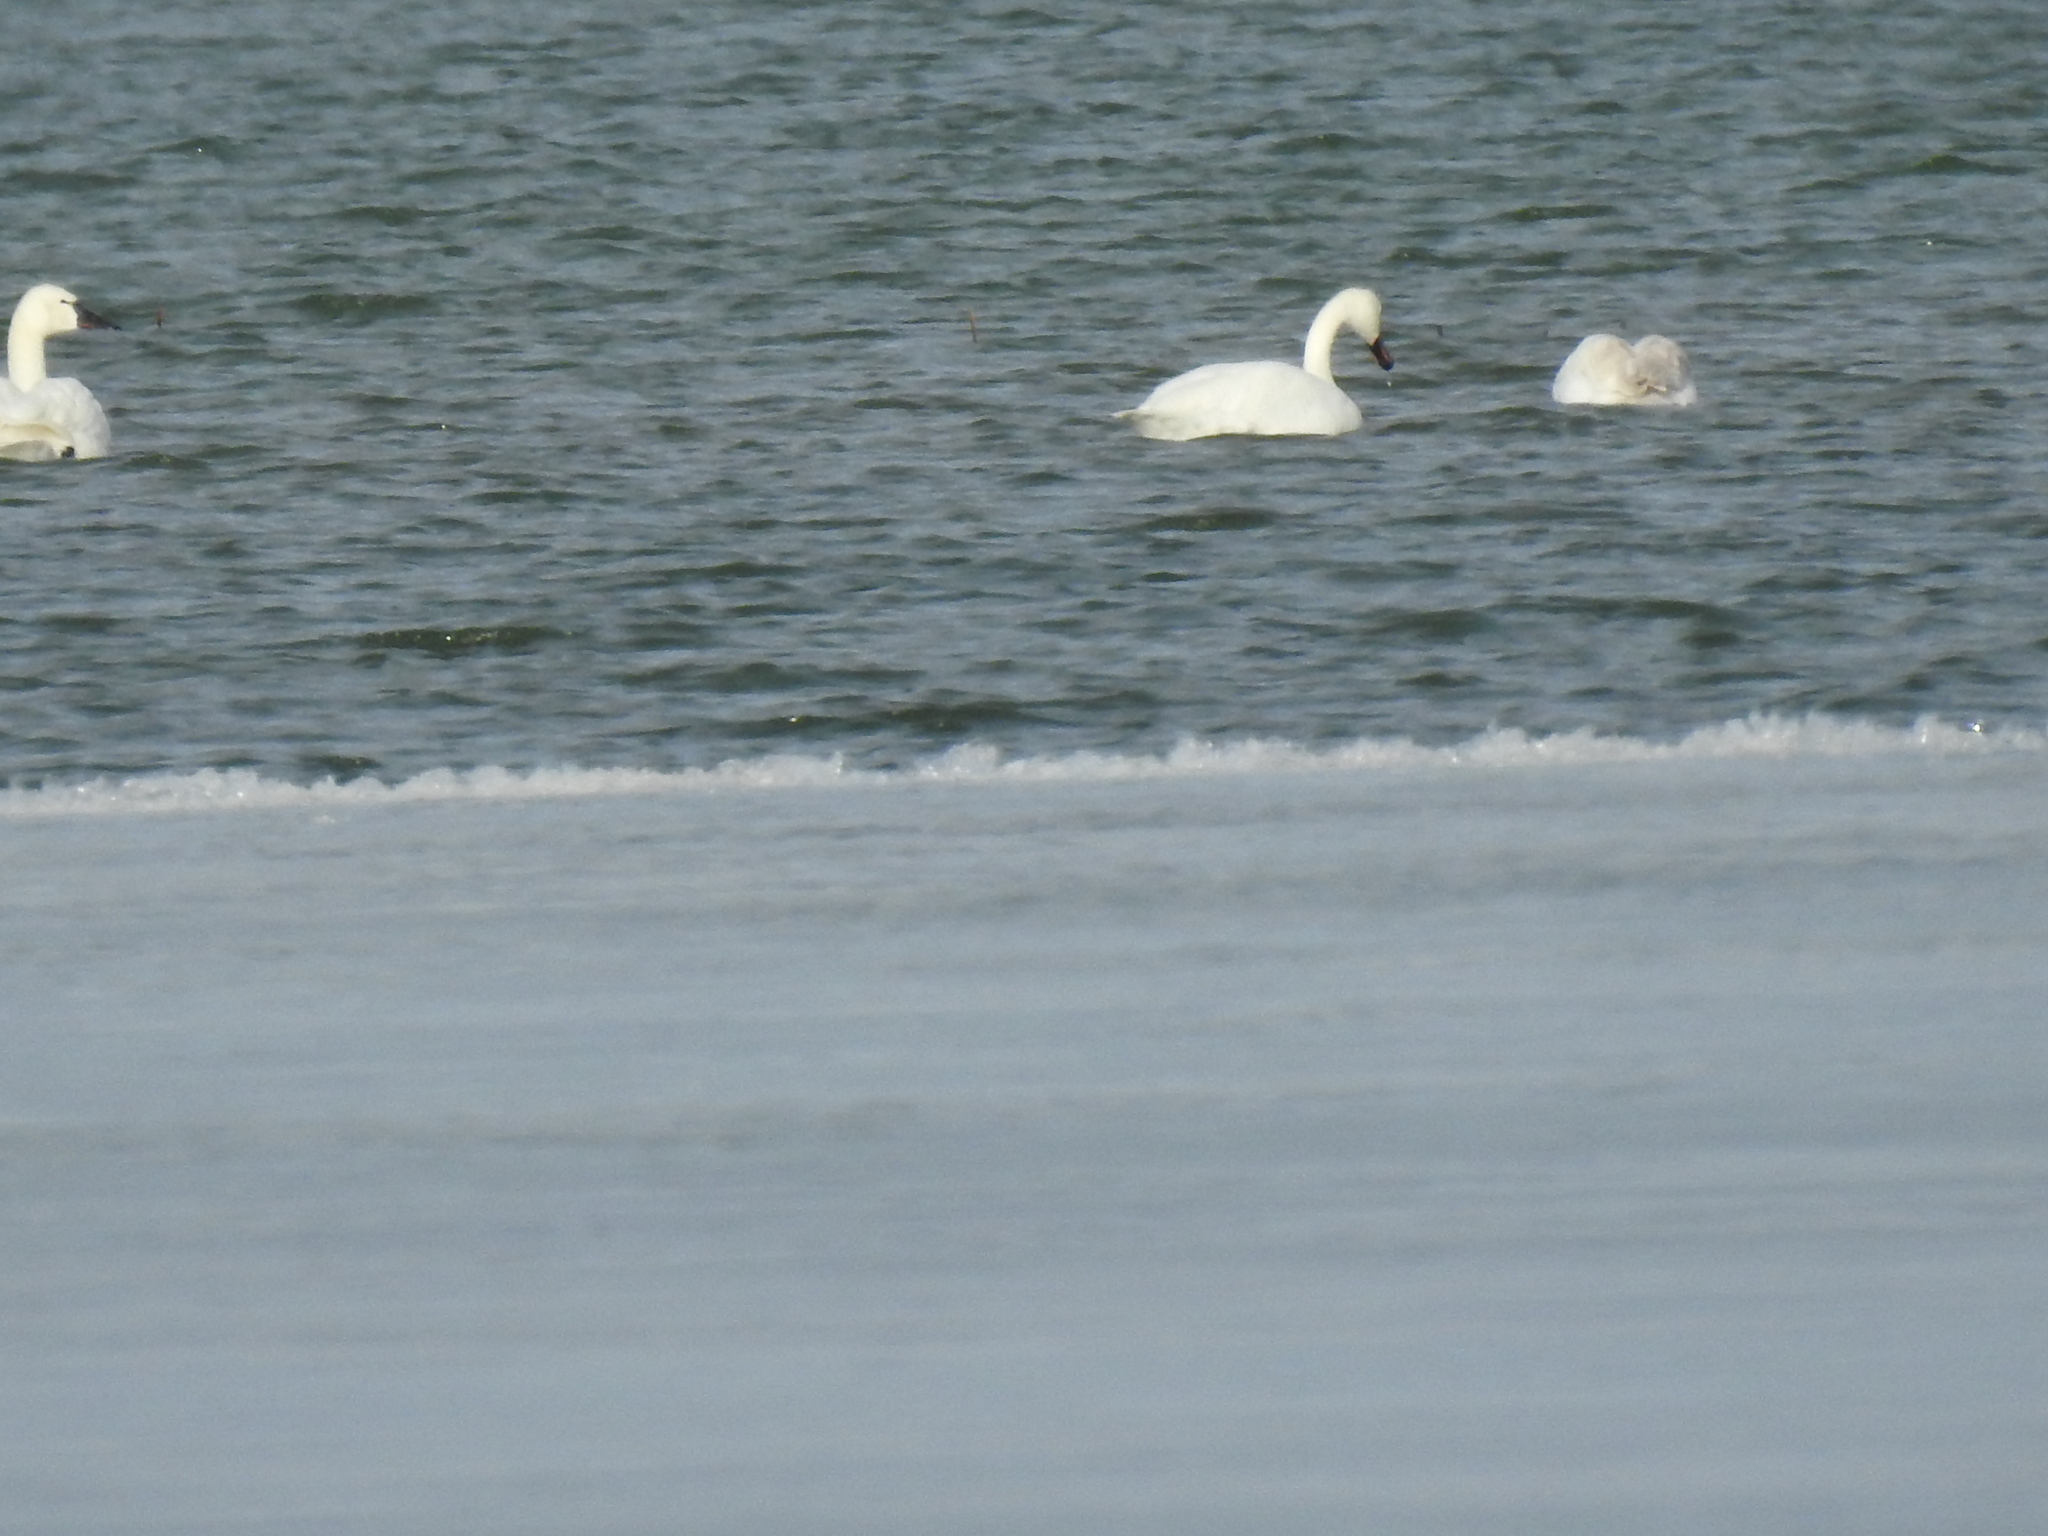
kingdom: Animalia
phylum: Chordata
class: Aves
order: Anseriformes
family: Anatidae
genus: Cygnus
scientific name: Cygnus columbianus
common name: Tundra swan
